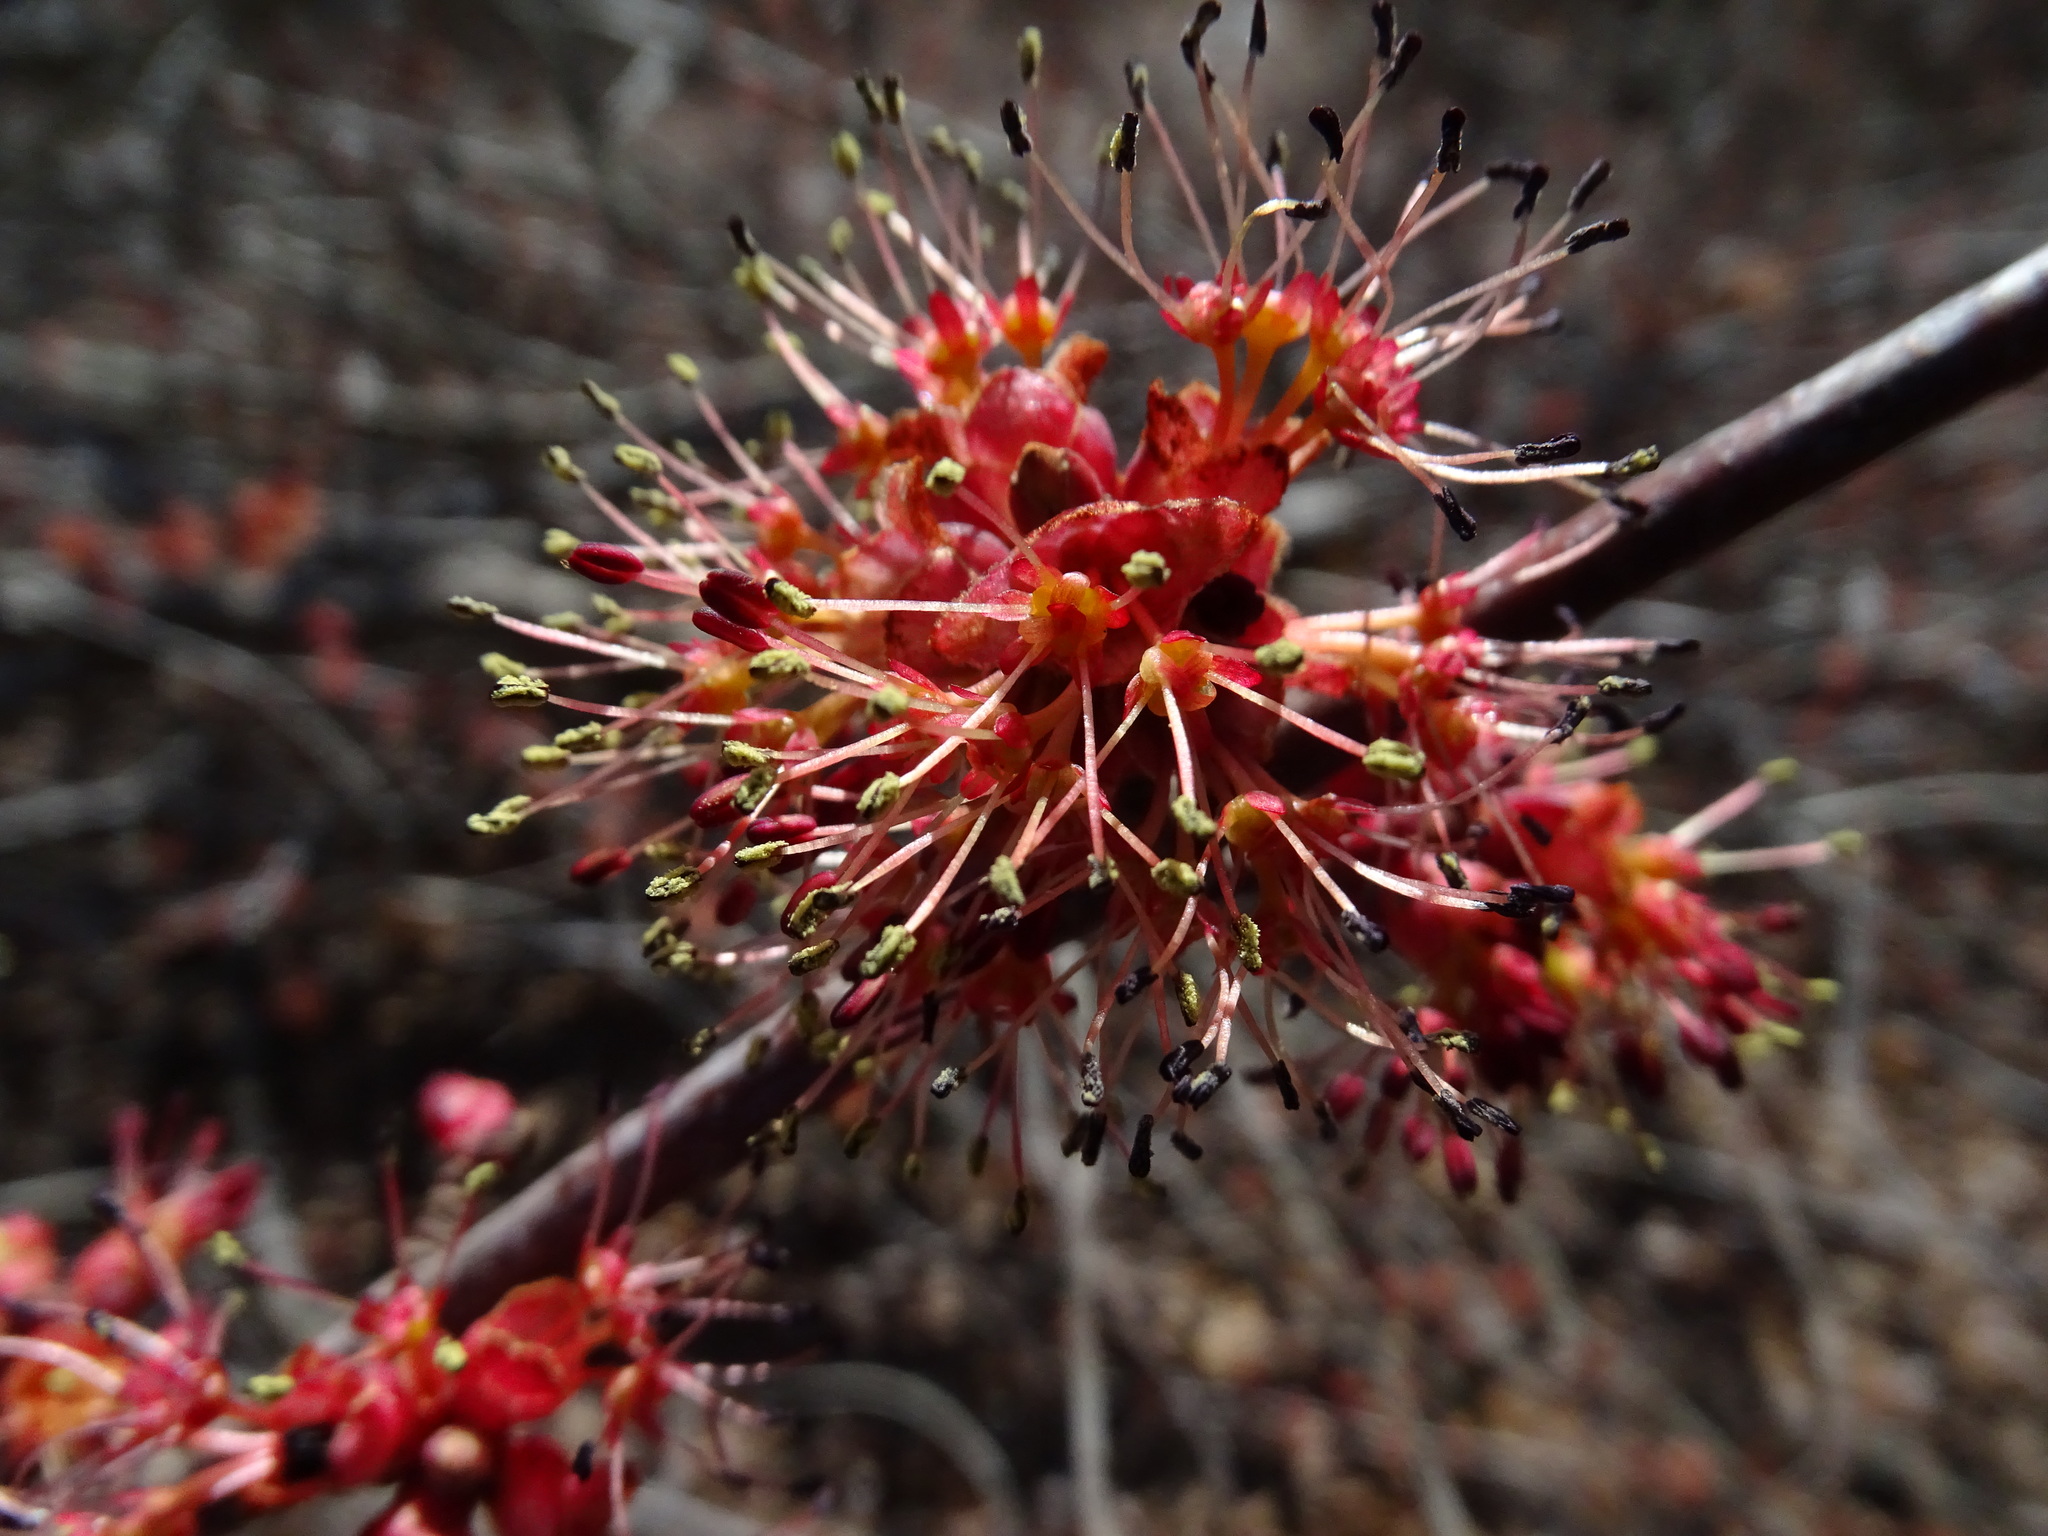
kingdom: Plantae
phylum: Tracheophyta
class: Magnoliopsida
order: Sapindales
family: Sapindaceae
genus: Acer
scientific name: Acer rubrum
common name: Red maple
